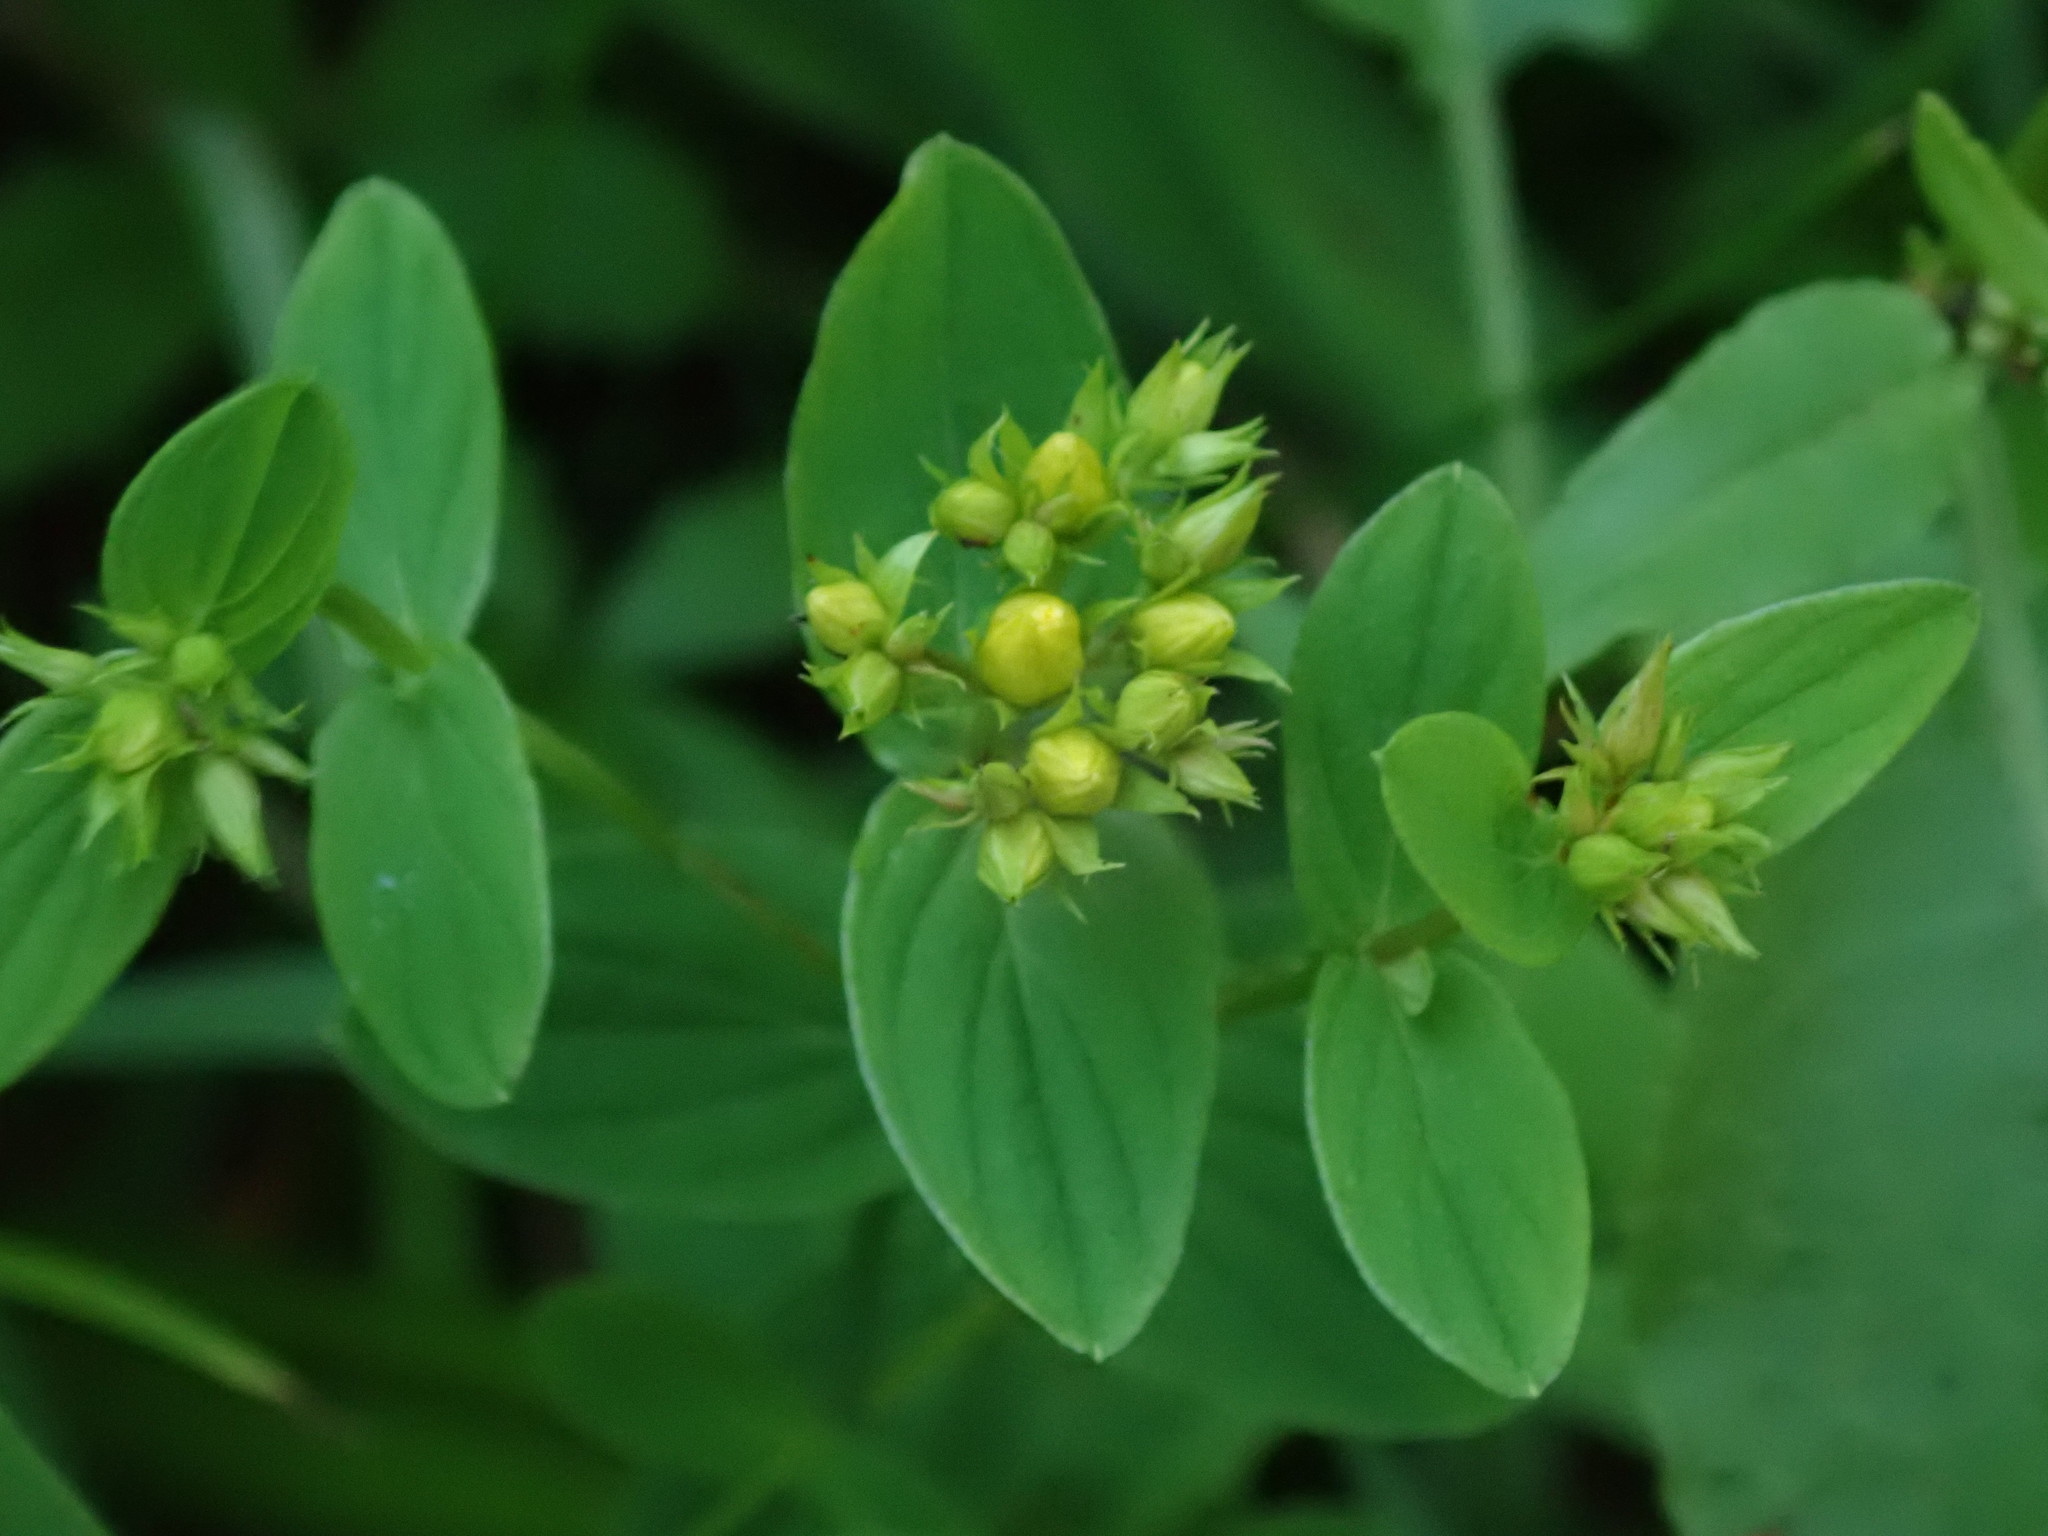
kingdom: Plantae
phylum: Tracheophyta
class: Magnoliopsida
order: Malpighiales
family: Hypericaceae
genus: Hypericum
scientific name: Hypericum tetrapterum
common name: Square-stalked st. john's-wort
